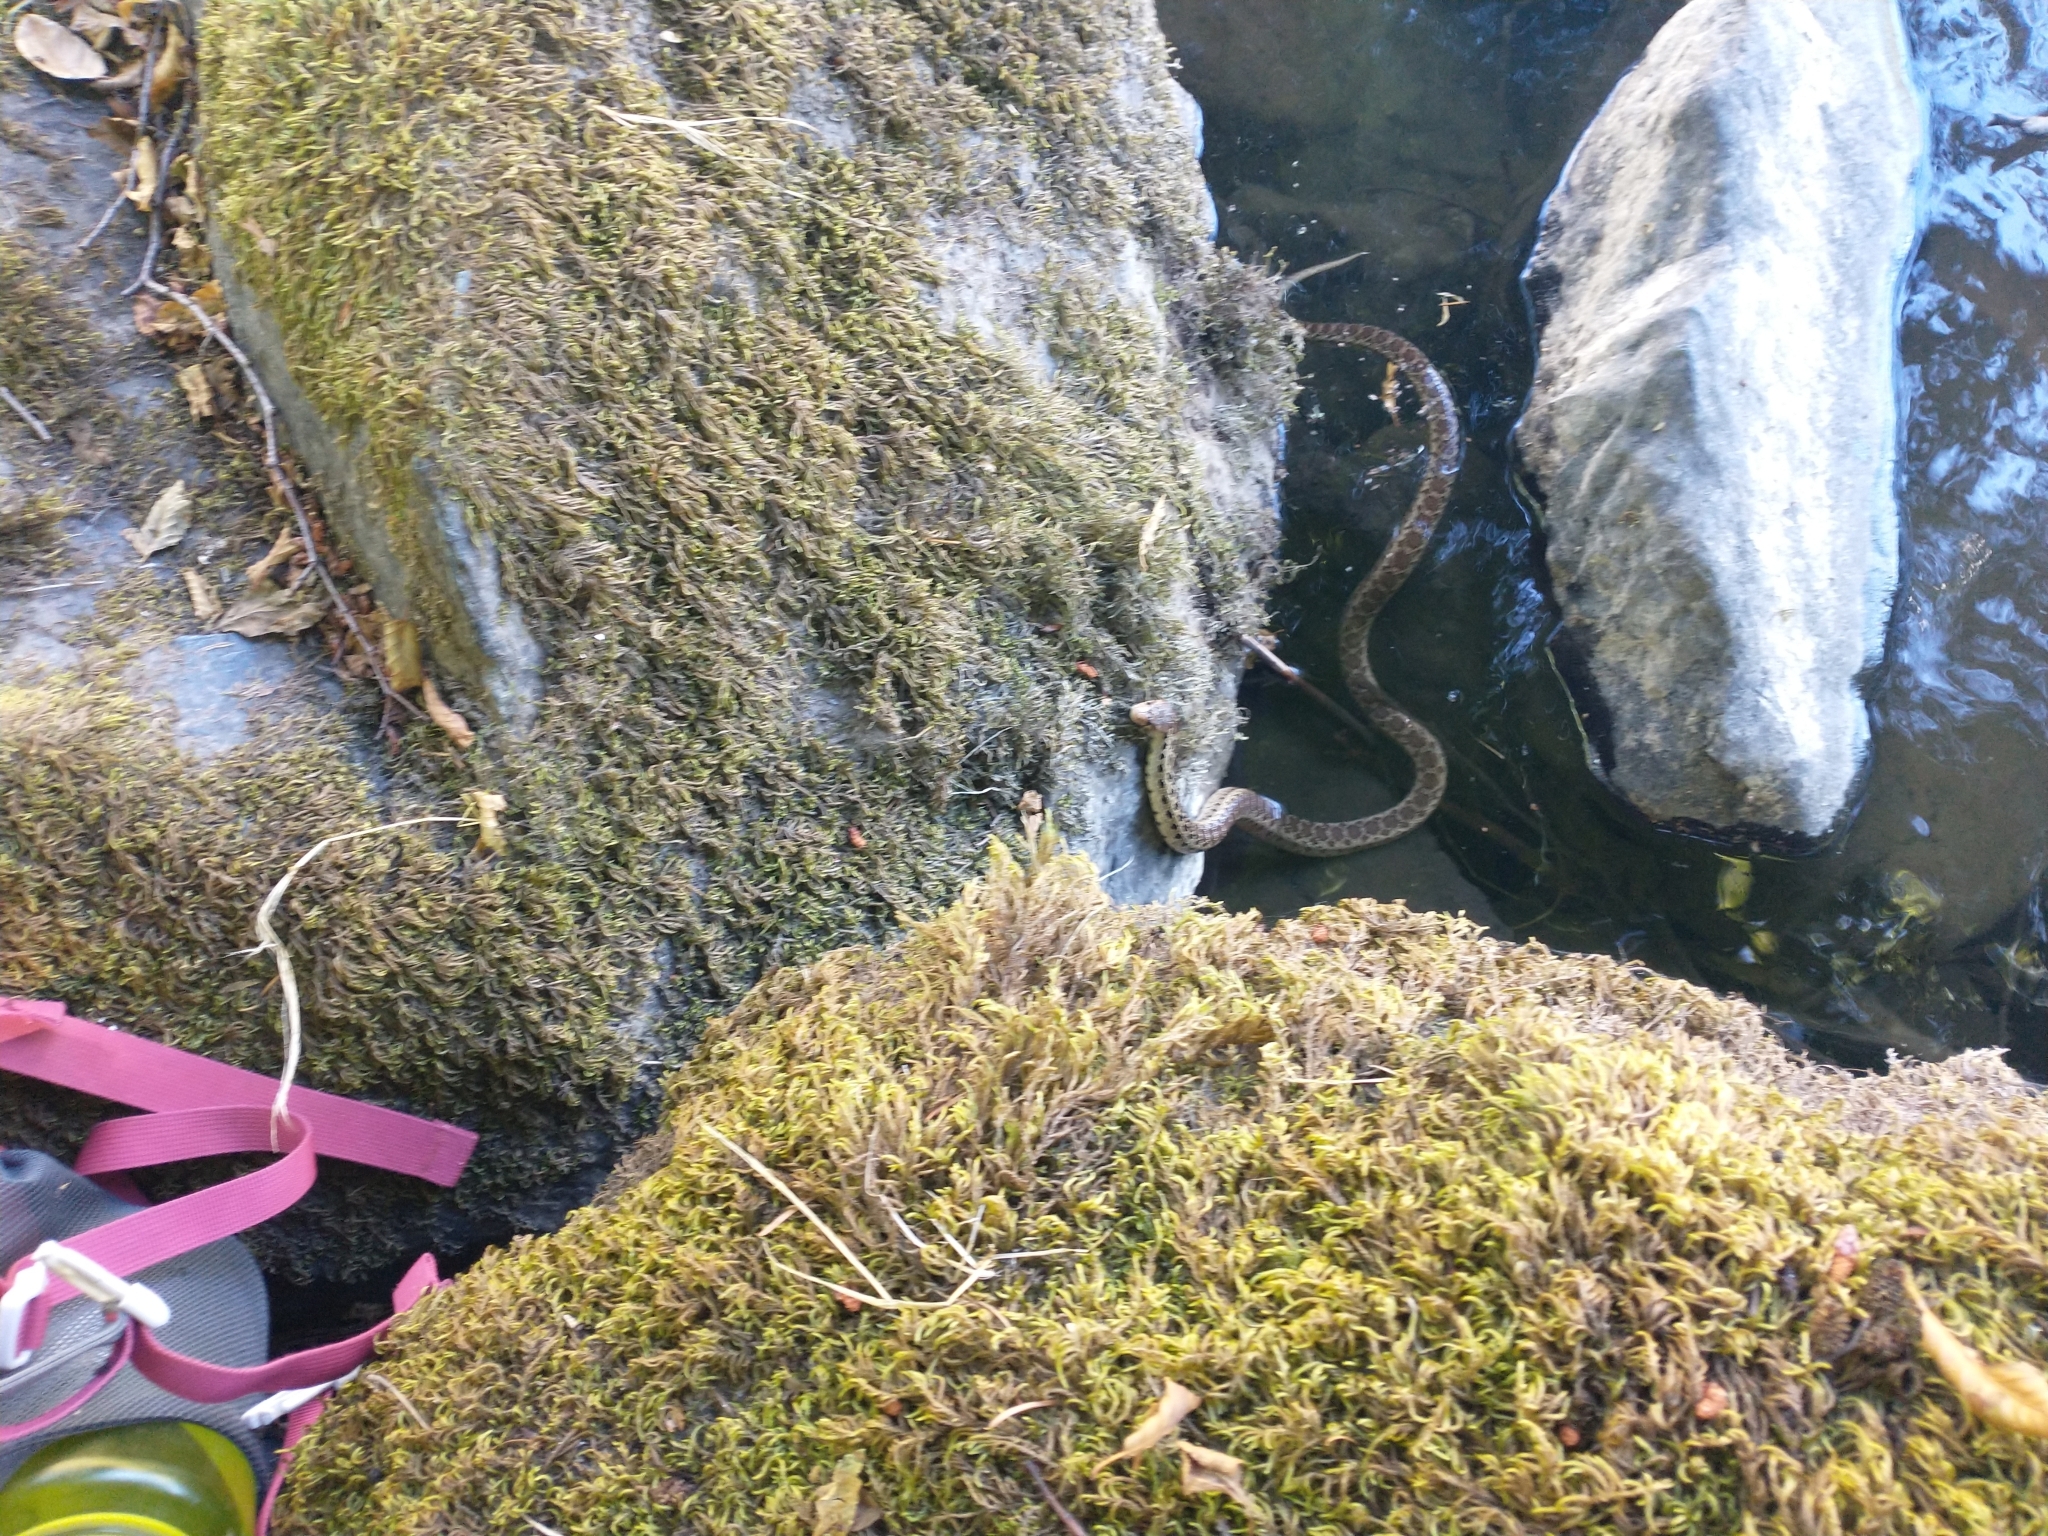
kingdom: Animalia
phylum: Chordata
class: Squamata
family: Colubridae
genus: Pituophis
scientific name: Pituophis catenifer
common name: Gopher snake
